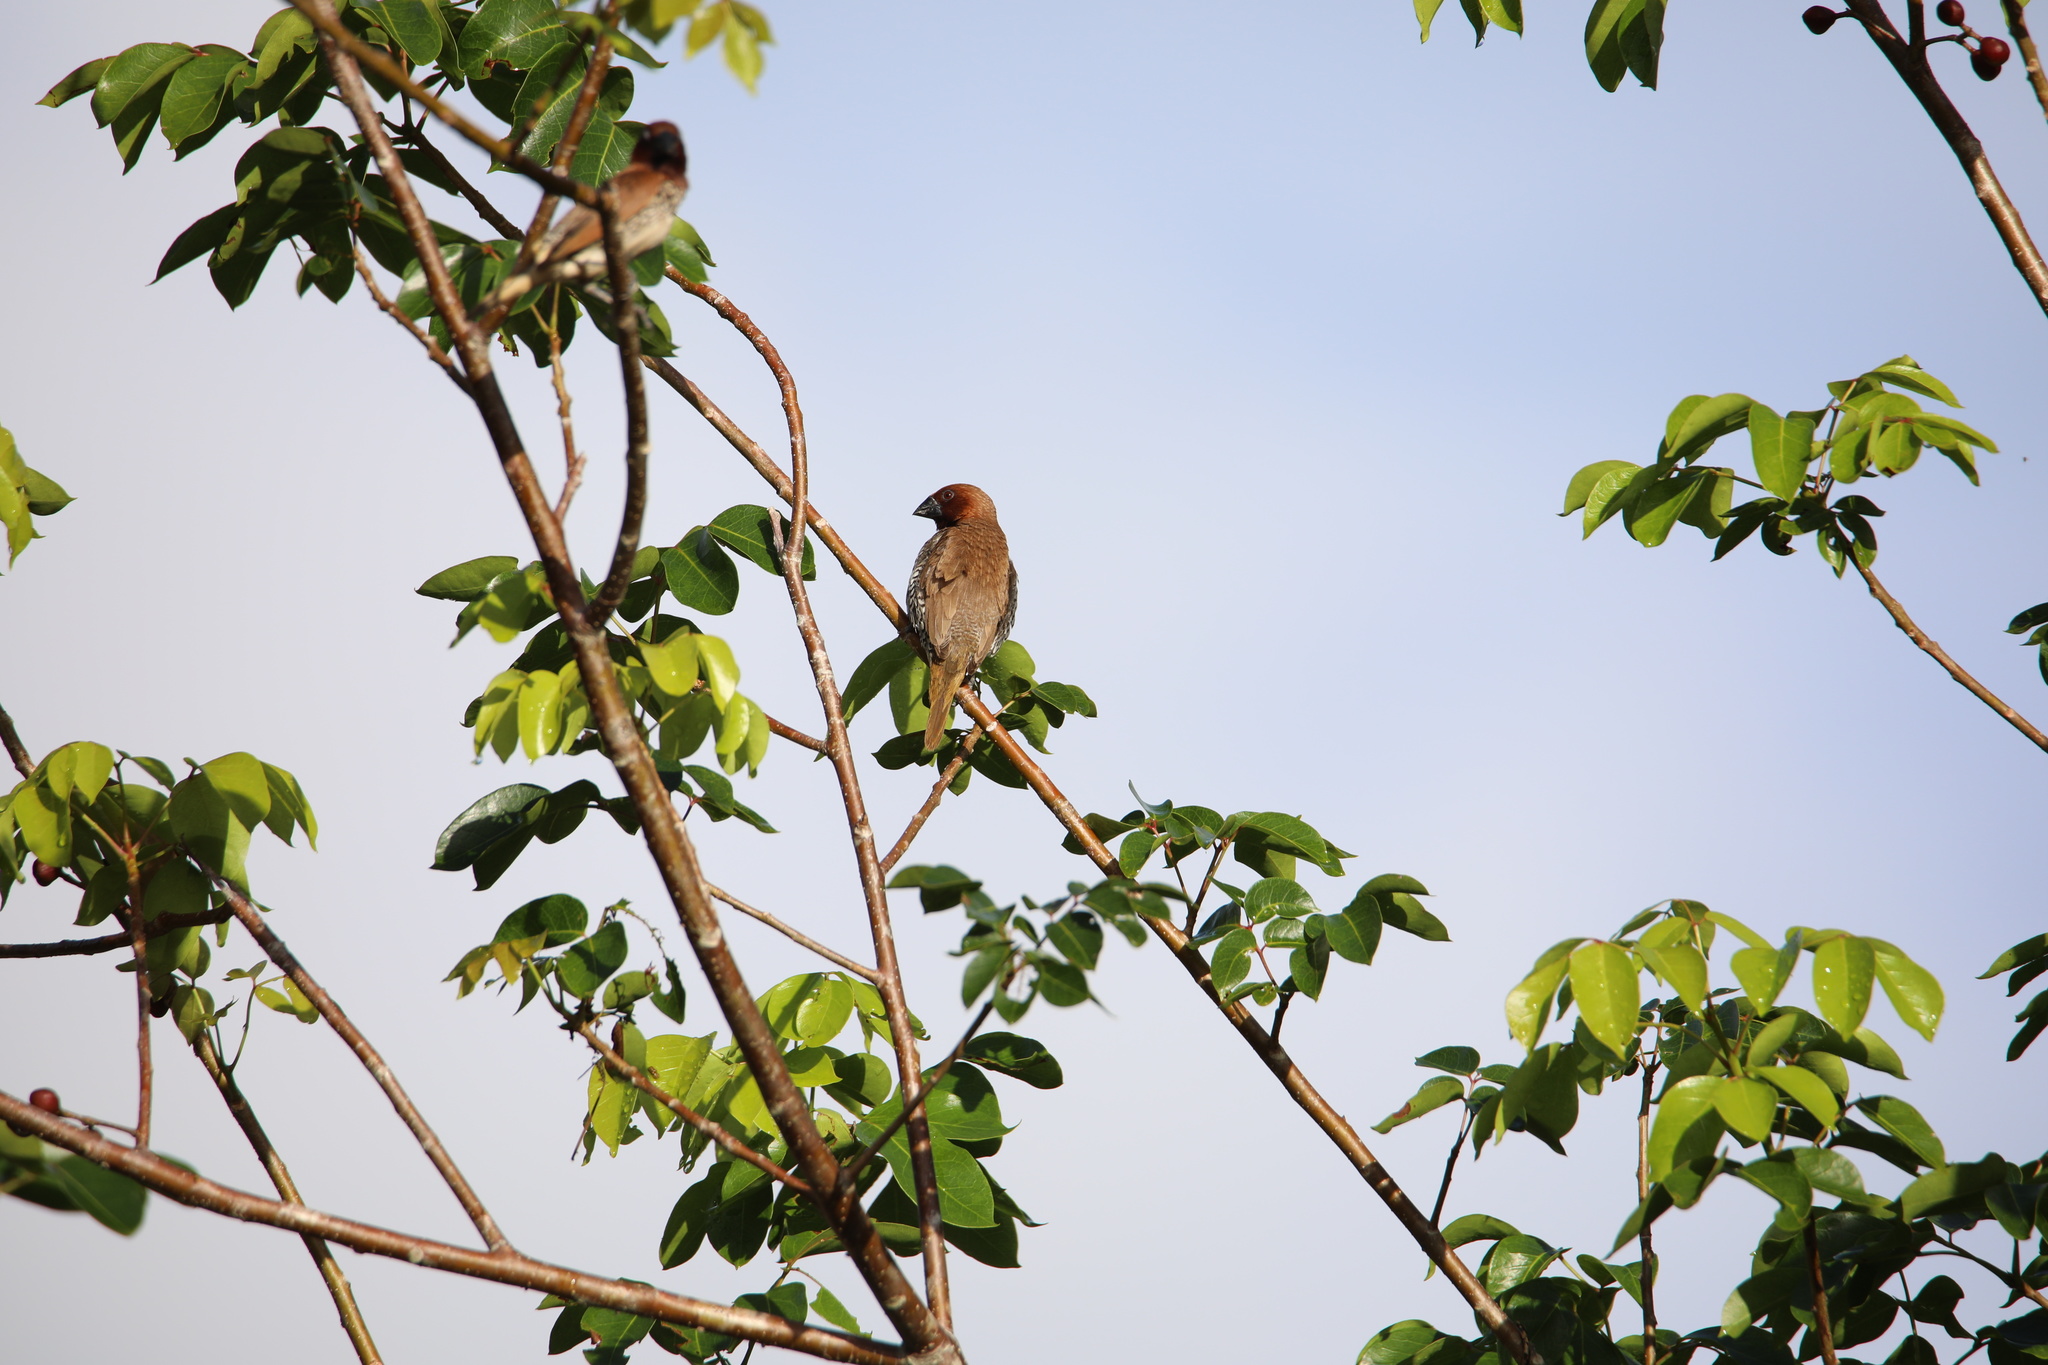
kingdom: Animalia
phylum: Chordata
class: Aves
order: Passeriformes
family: Estrildidae
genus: Lonchura
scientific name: Lonchura punctulata
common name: Scaly-breasted munia
